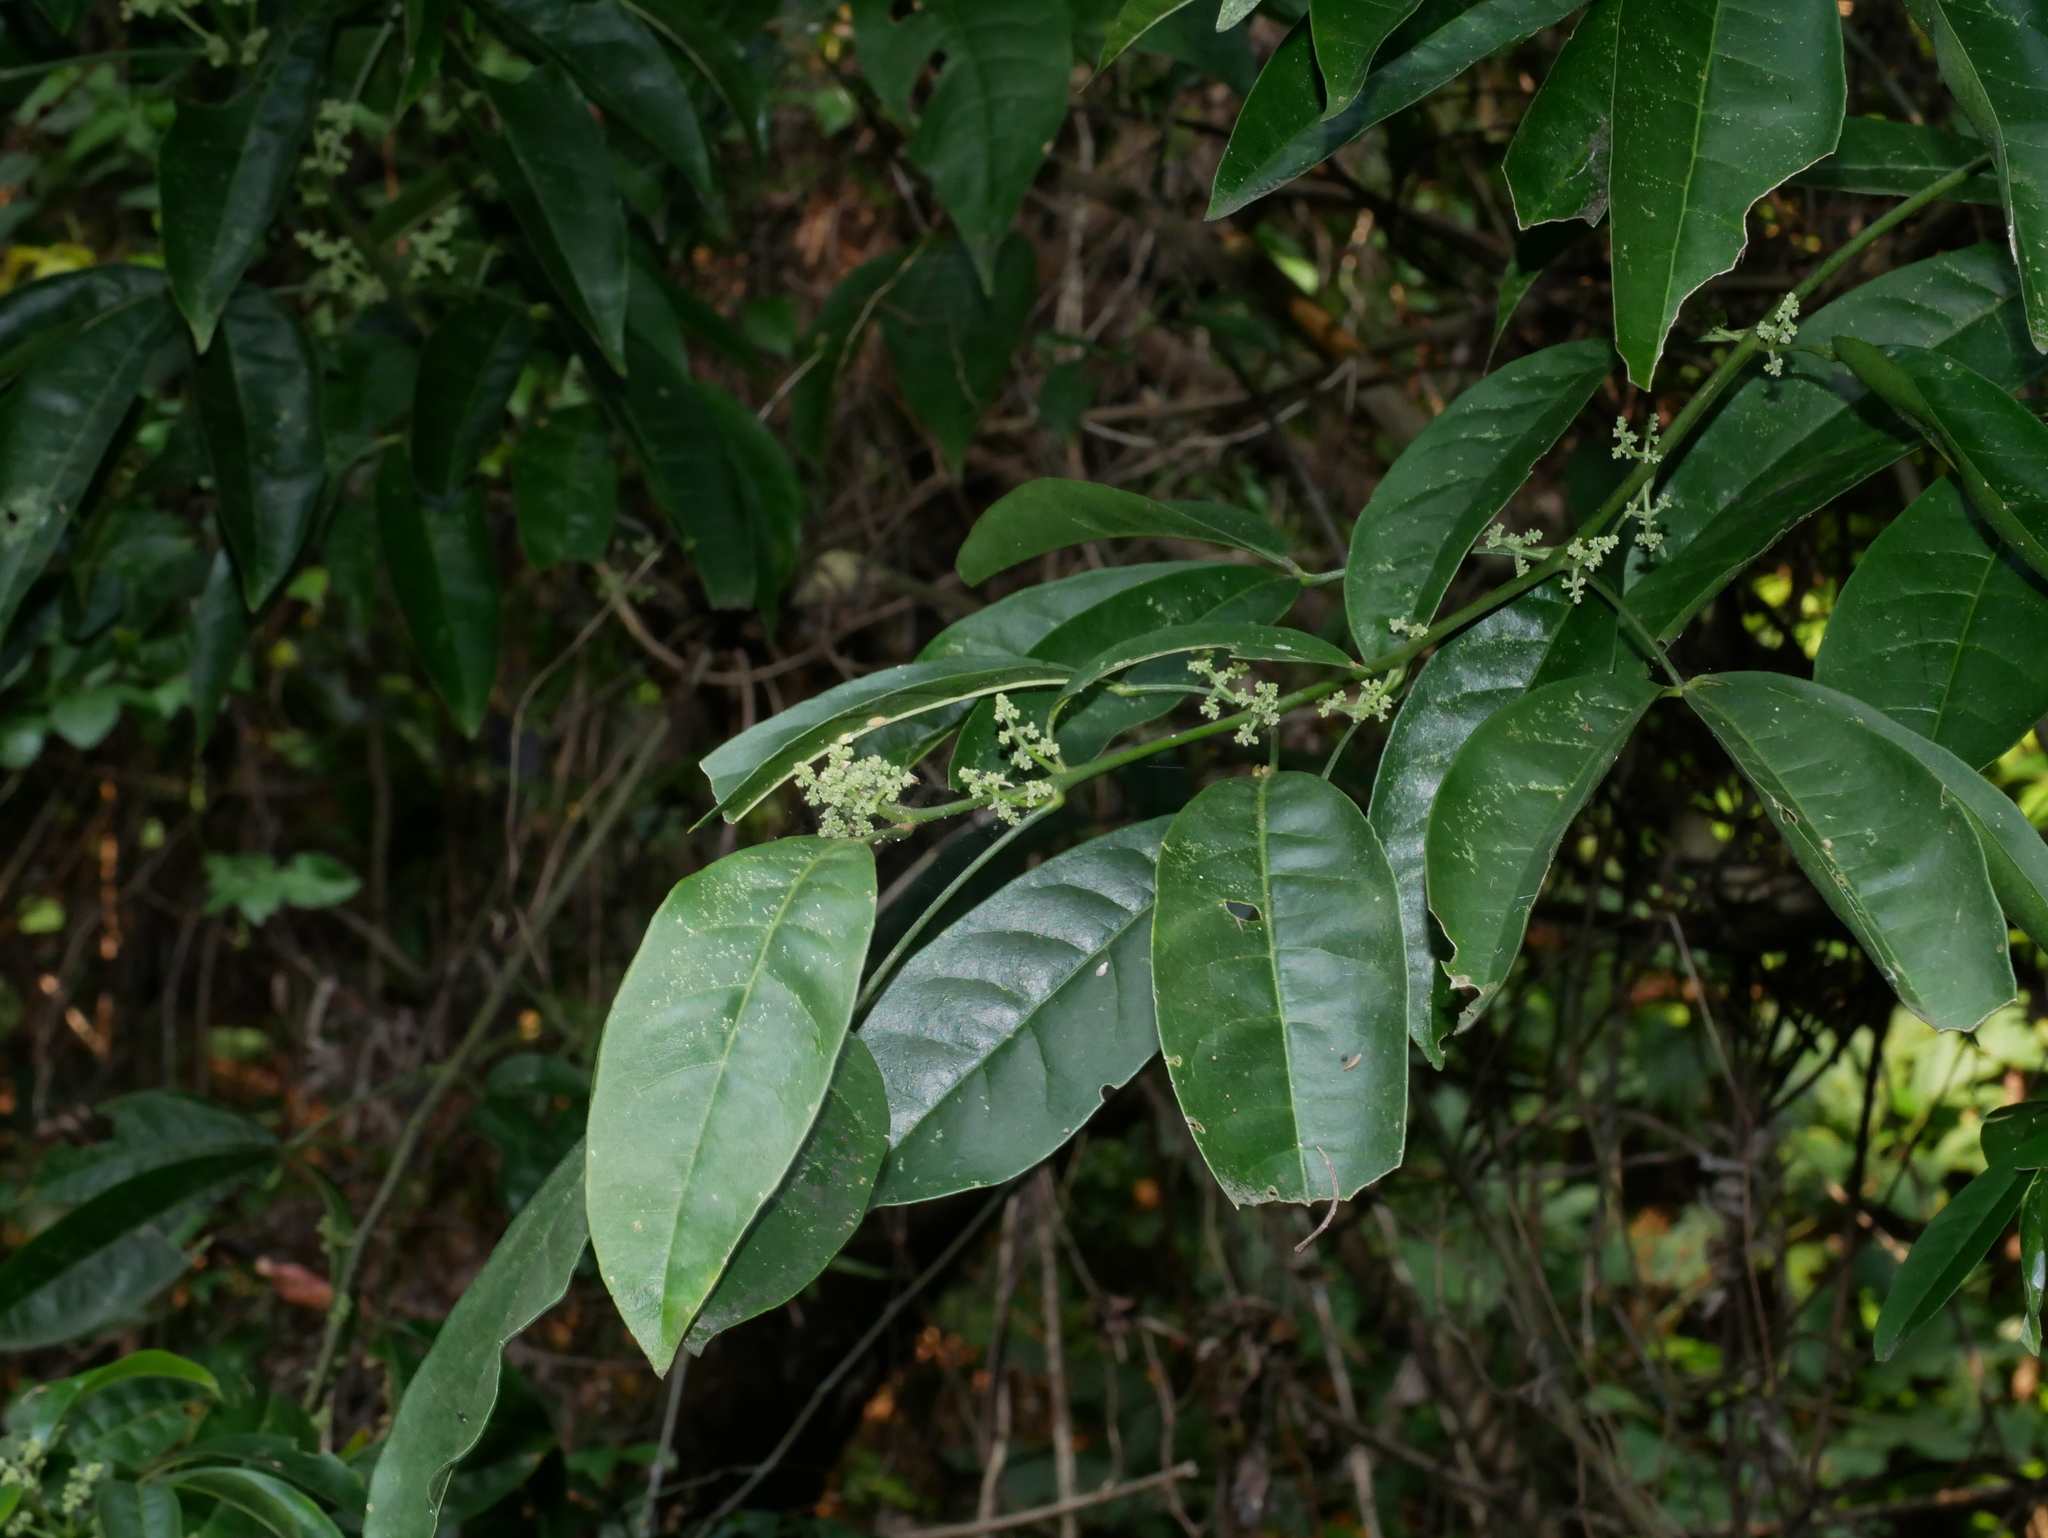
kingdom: Plantae
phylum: Tracheophyta
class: Magnoliopsida
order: Sapindales
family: Rutaceae
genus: Melicope
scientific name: Melicope pteleifolia
